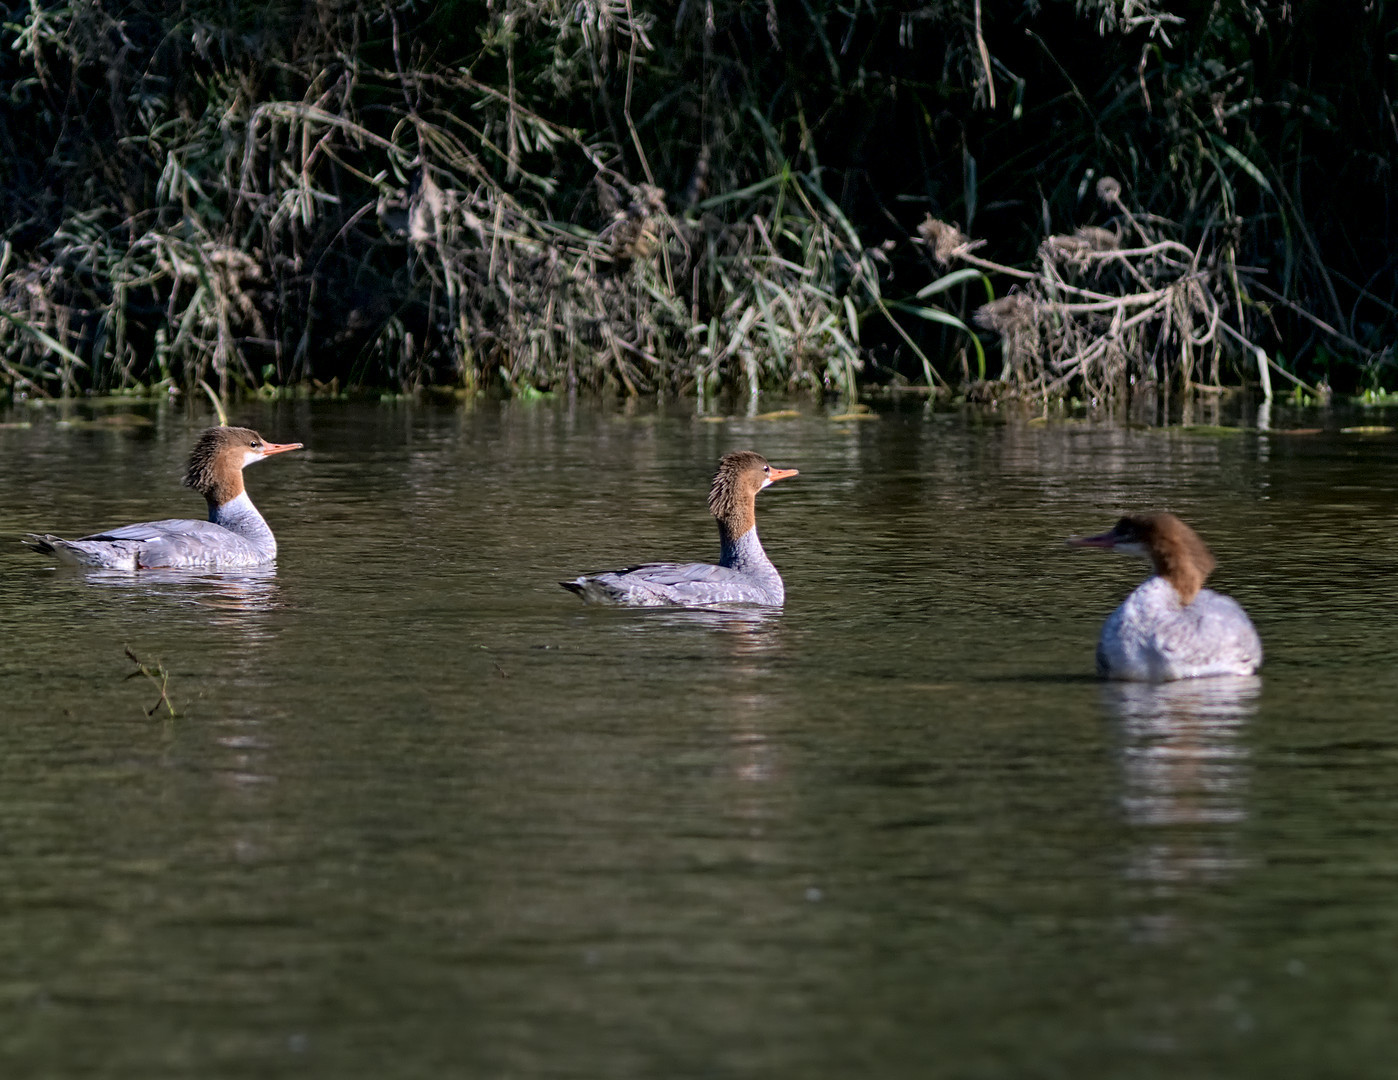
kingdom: Animalia
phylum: Chordata
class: Aves
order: Anseriformes
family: Anatidae
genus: Mergus
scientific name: Mergus merganser
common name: Common merganser
